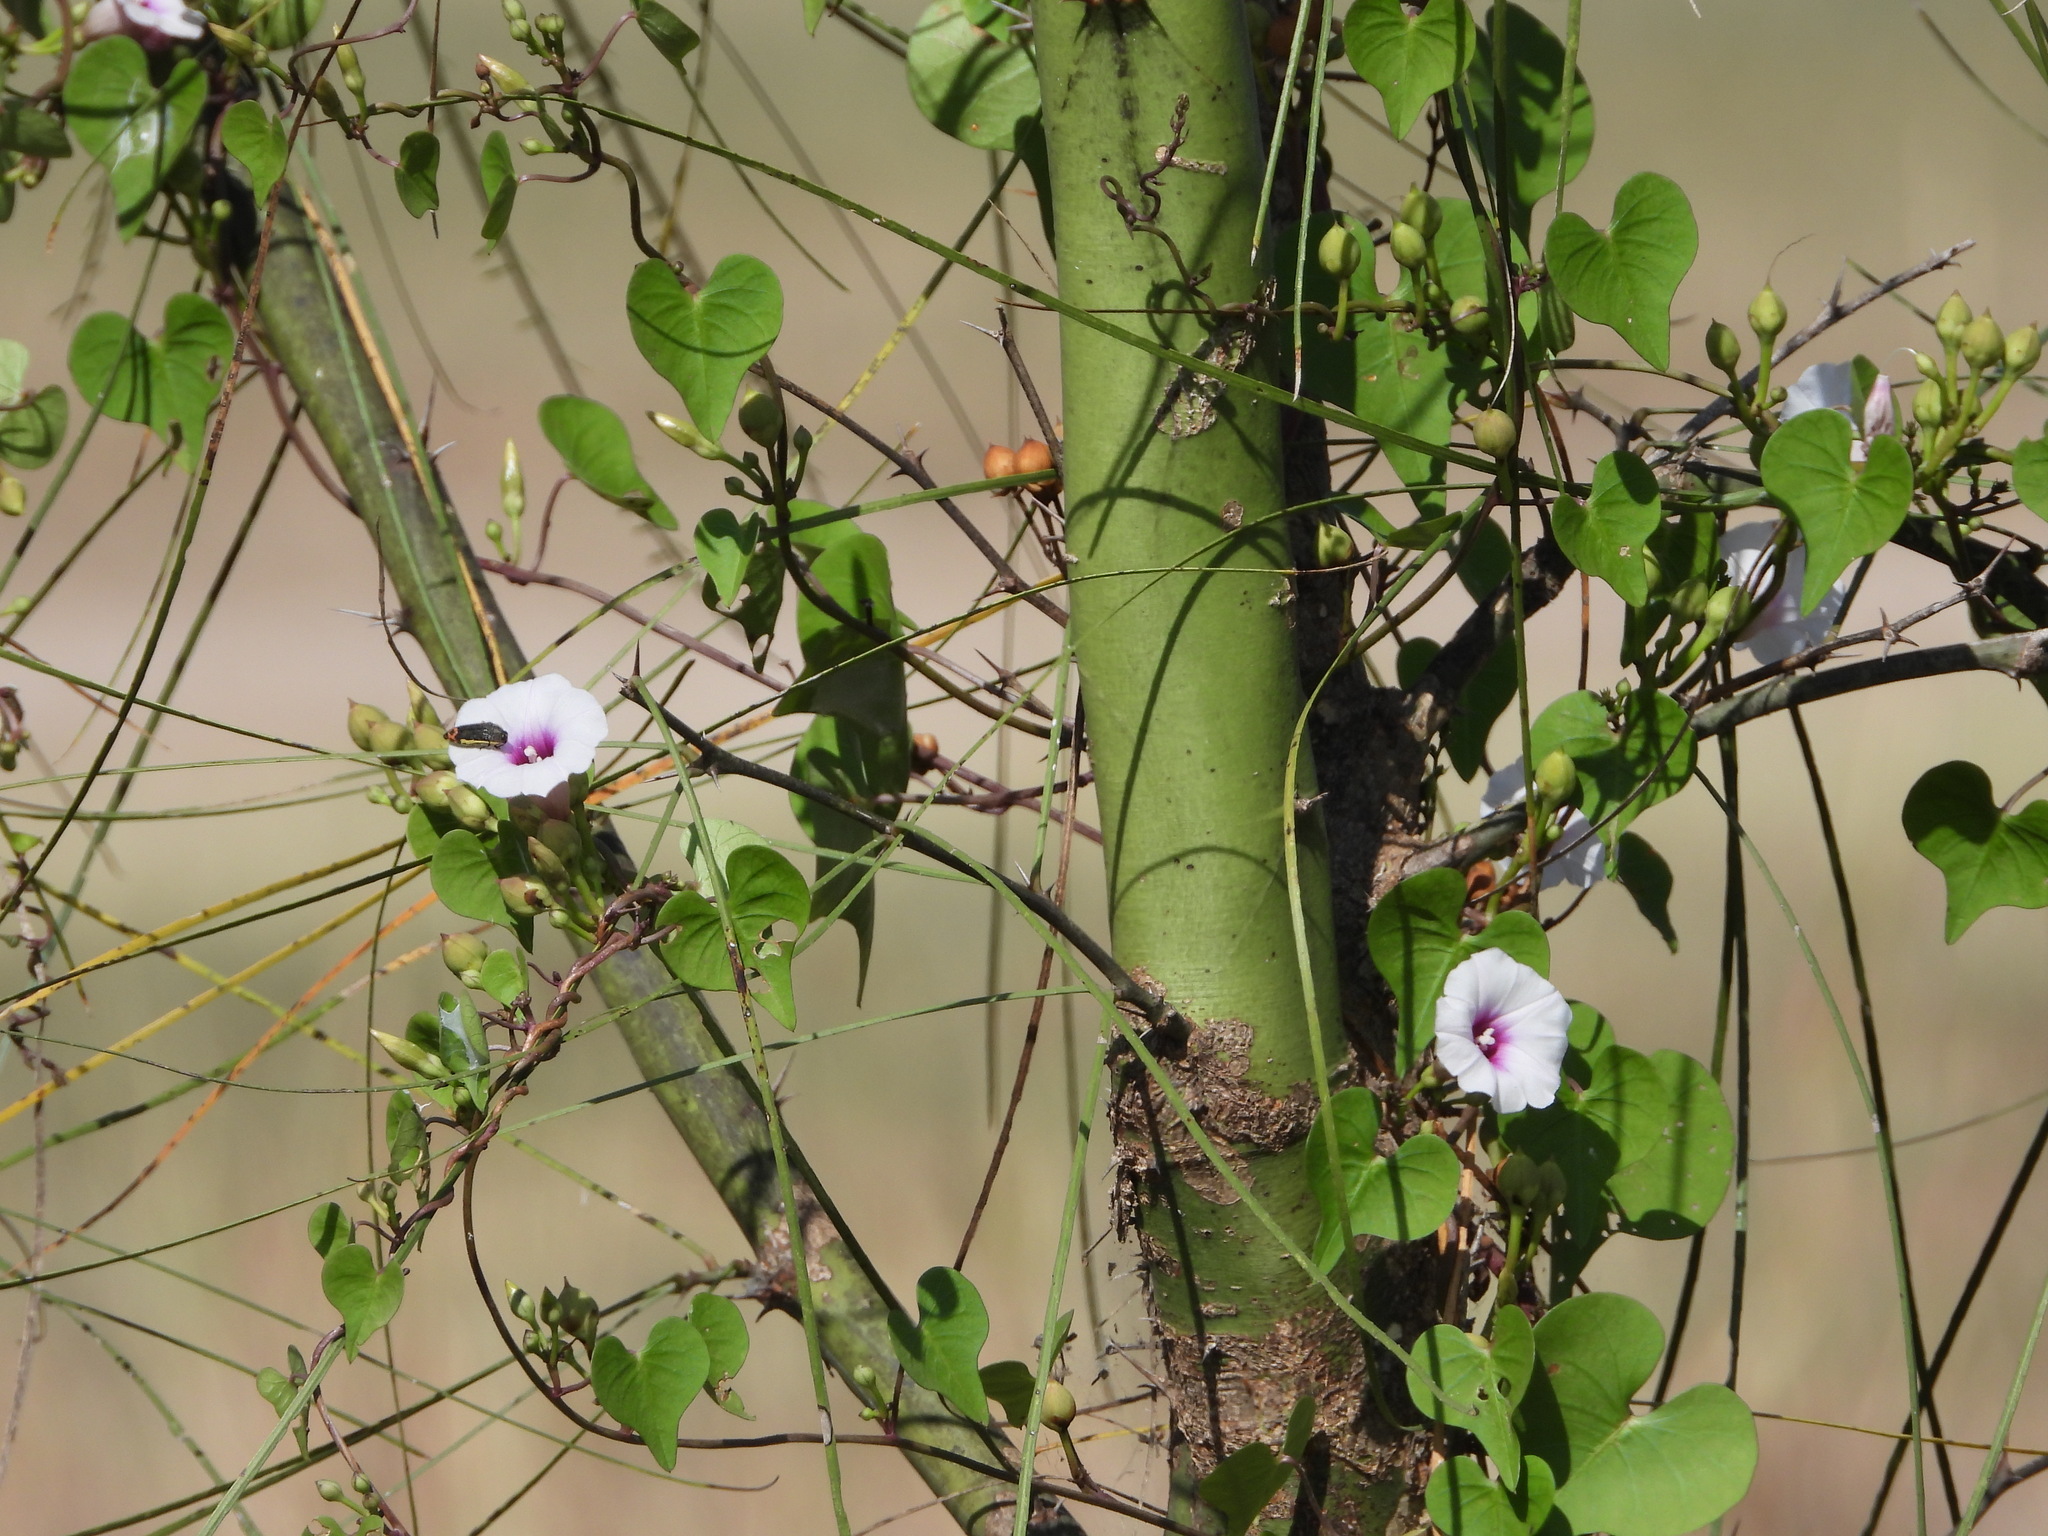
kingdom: Plantae
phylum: Tracheophyta
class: Magnoliopsida
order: Solanales
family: Convolvulaceae
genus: Ipomoea
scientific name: Ipomoea amnicola
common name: Redcenter morning-glory
